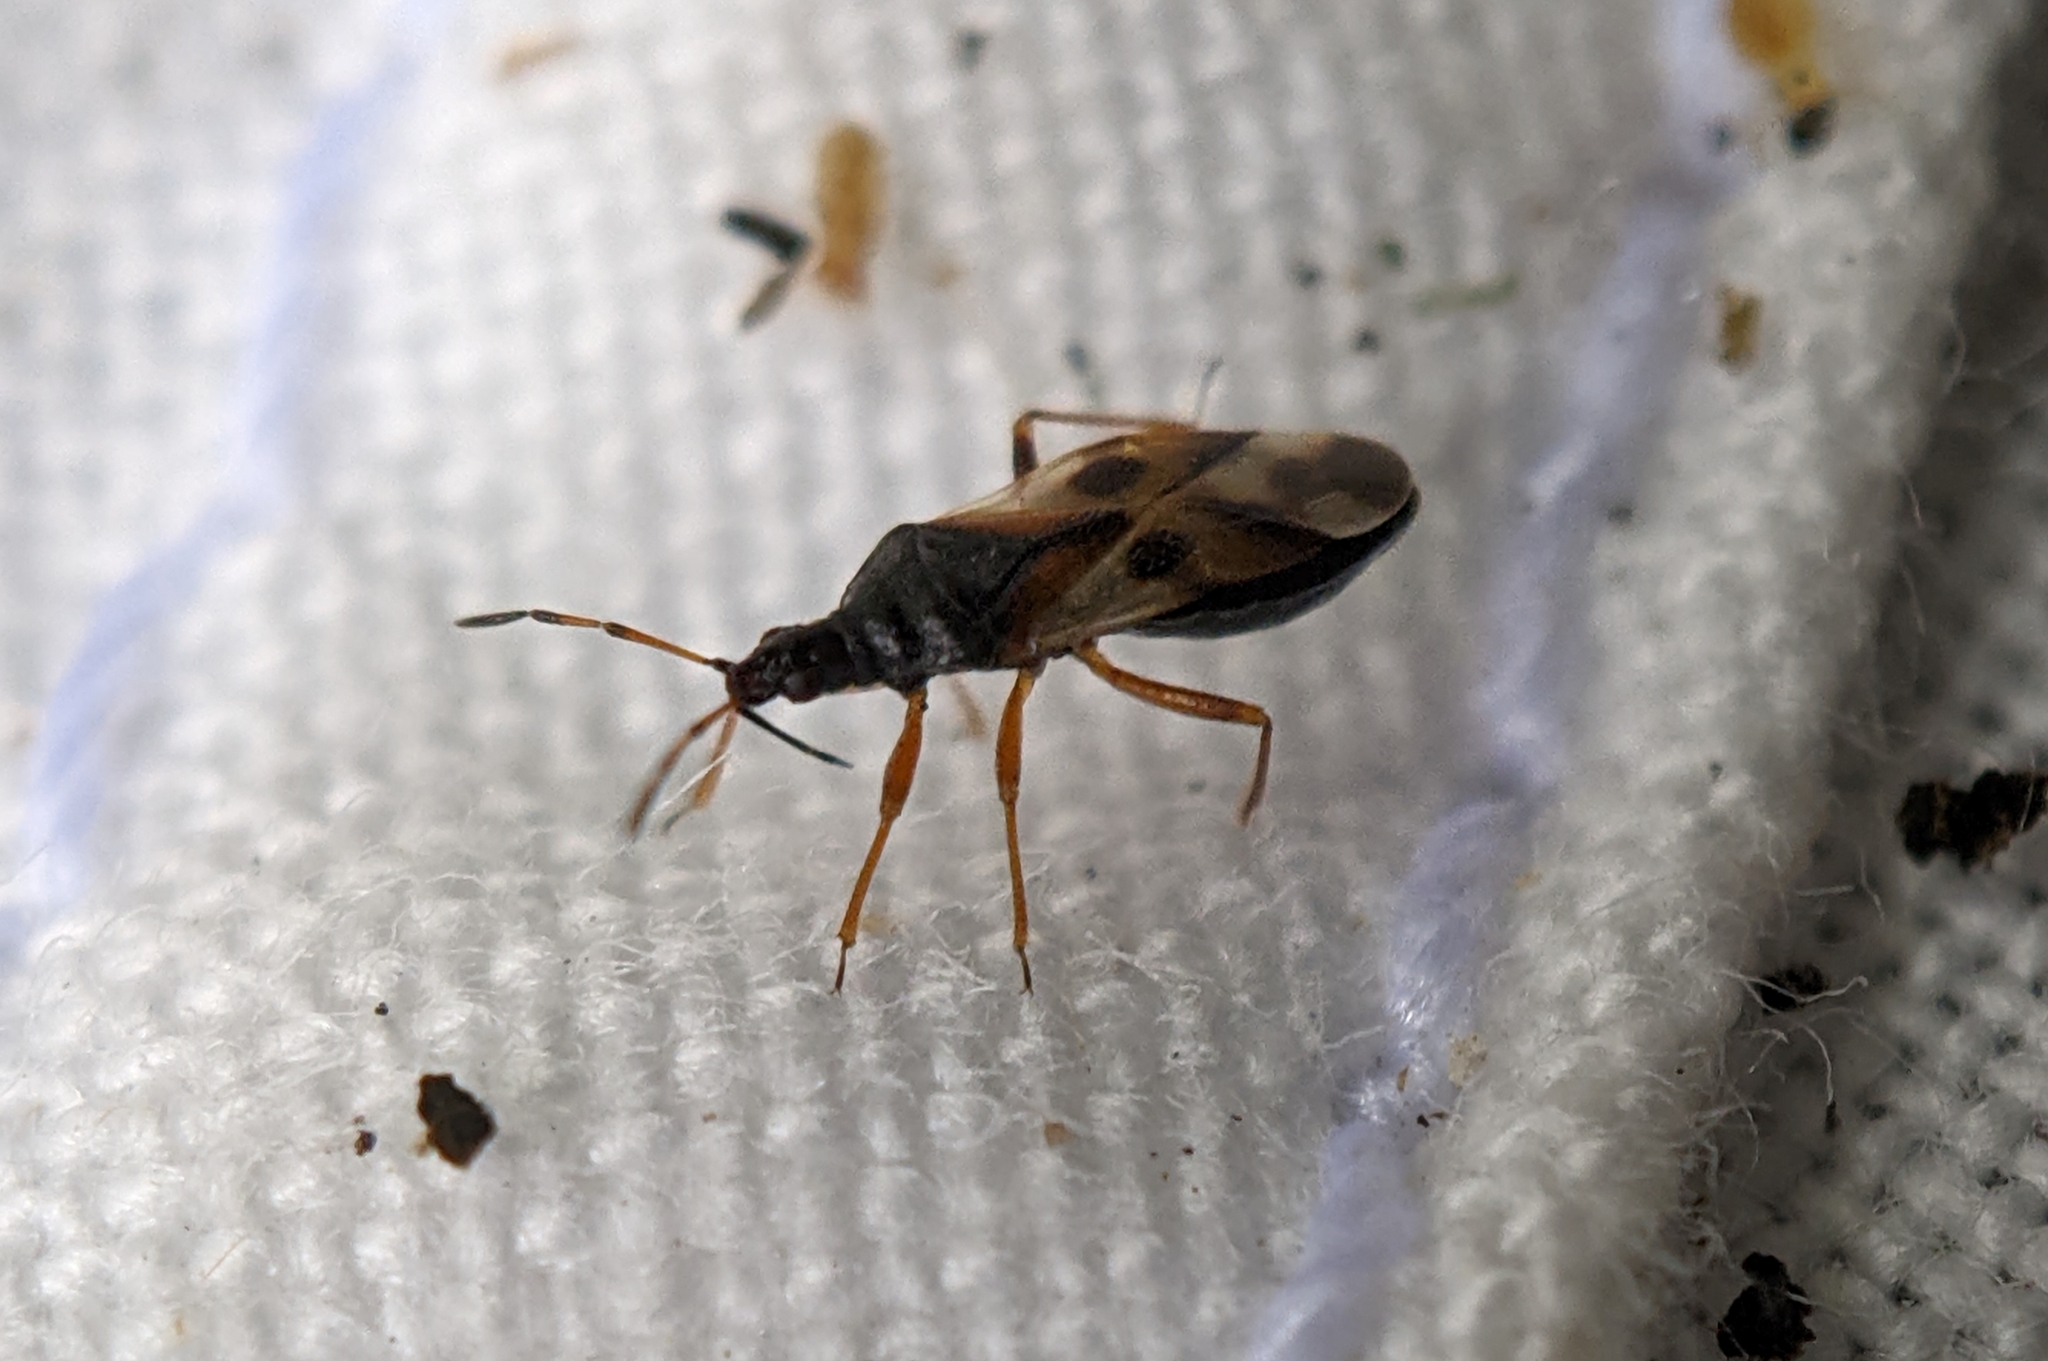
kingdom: Animalia
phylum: Arthropoda
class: Insecta
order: Hemiptera
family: Anthocoridae
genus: Anthocoris
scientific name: Anthocoris nemorum
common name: Minute pirate bug
